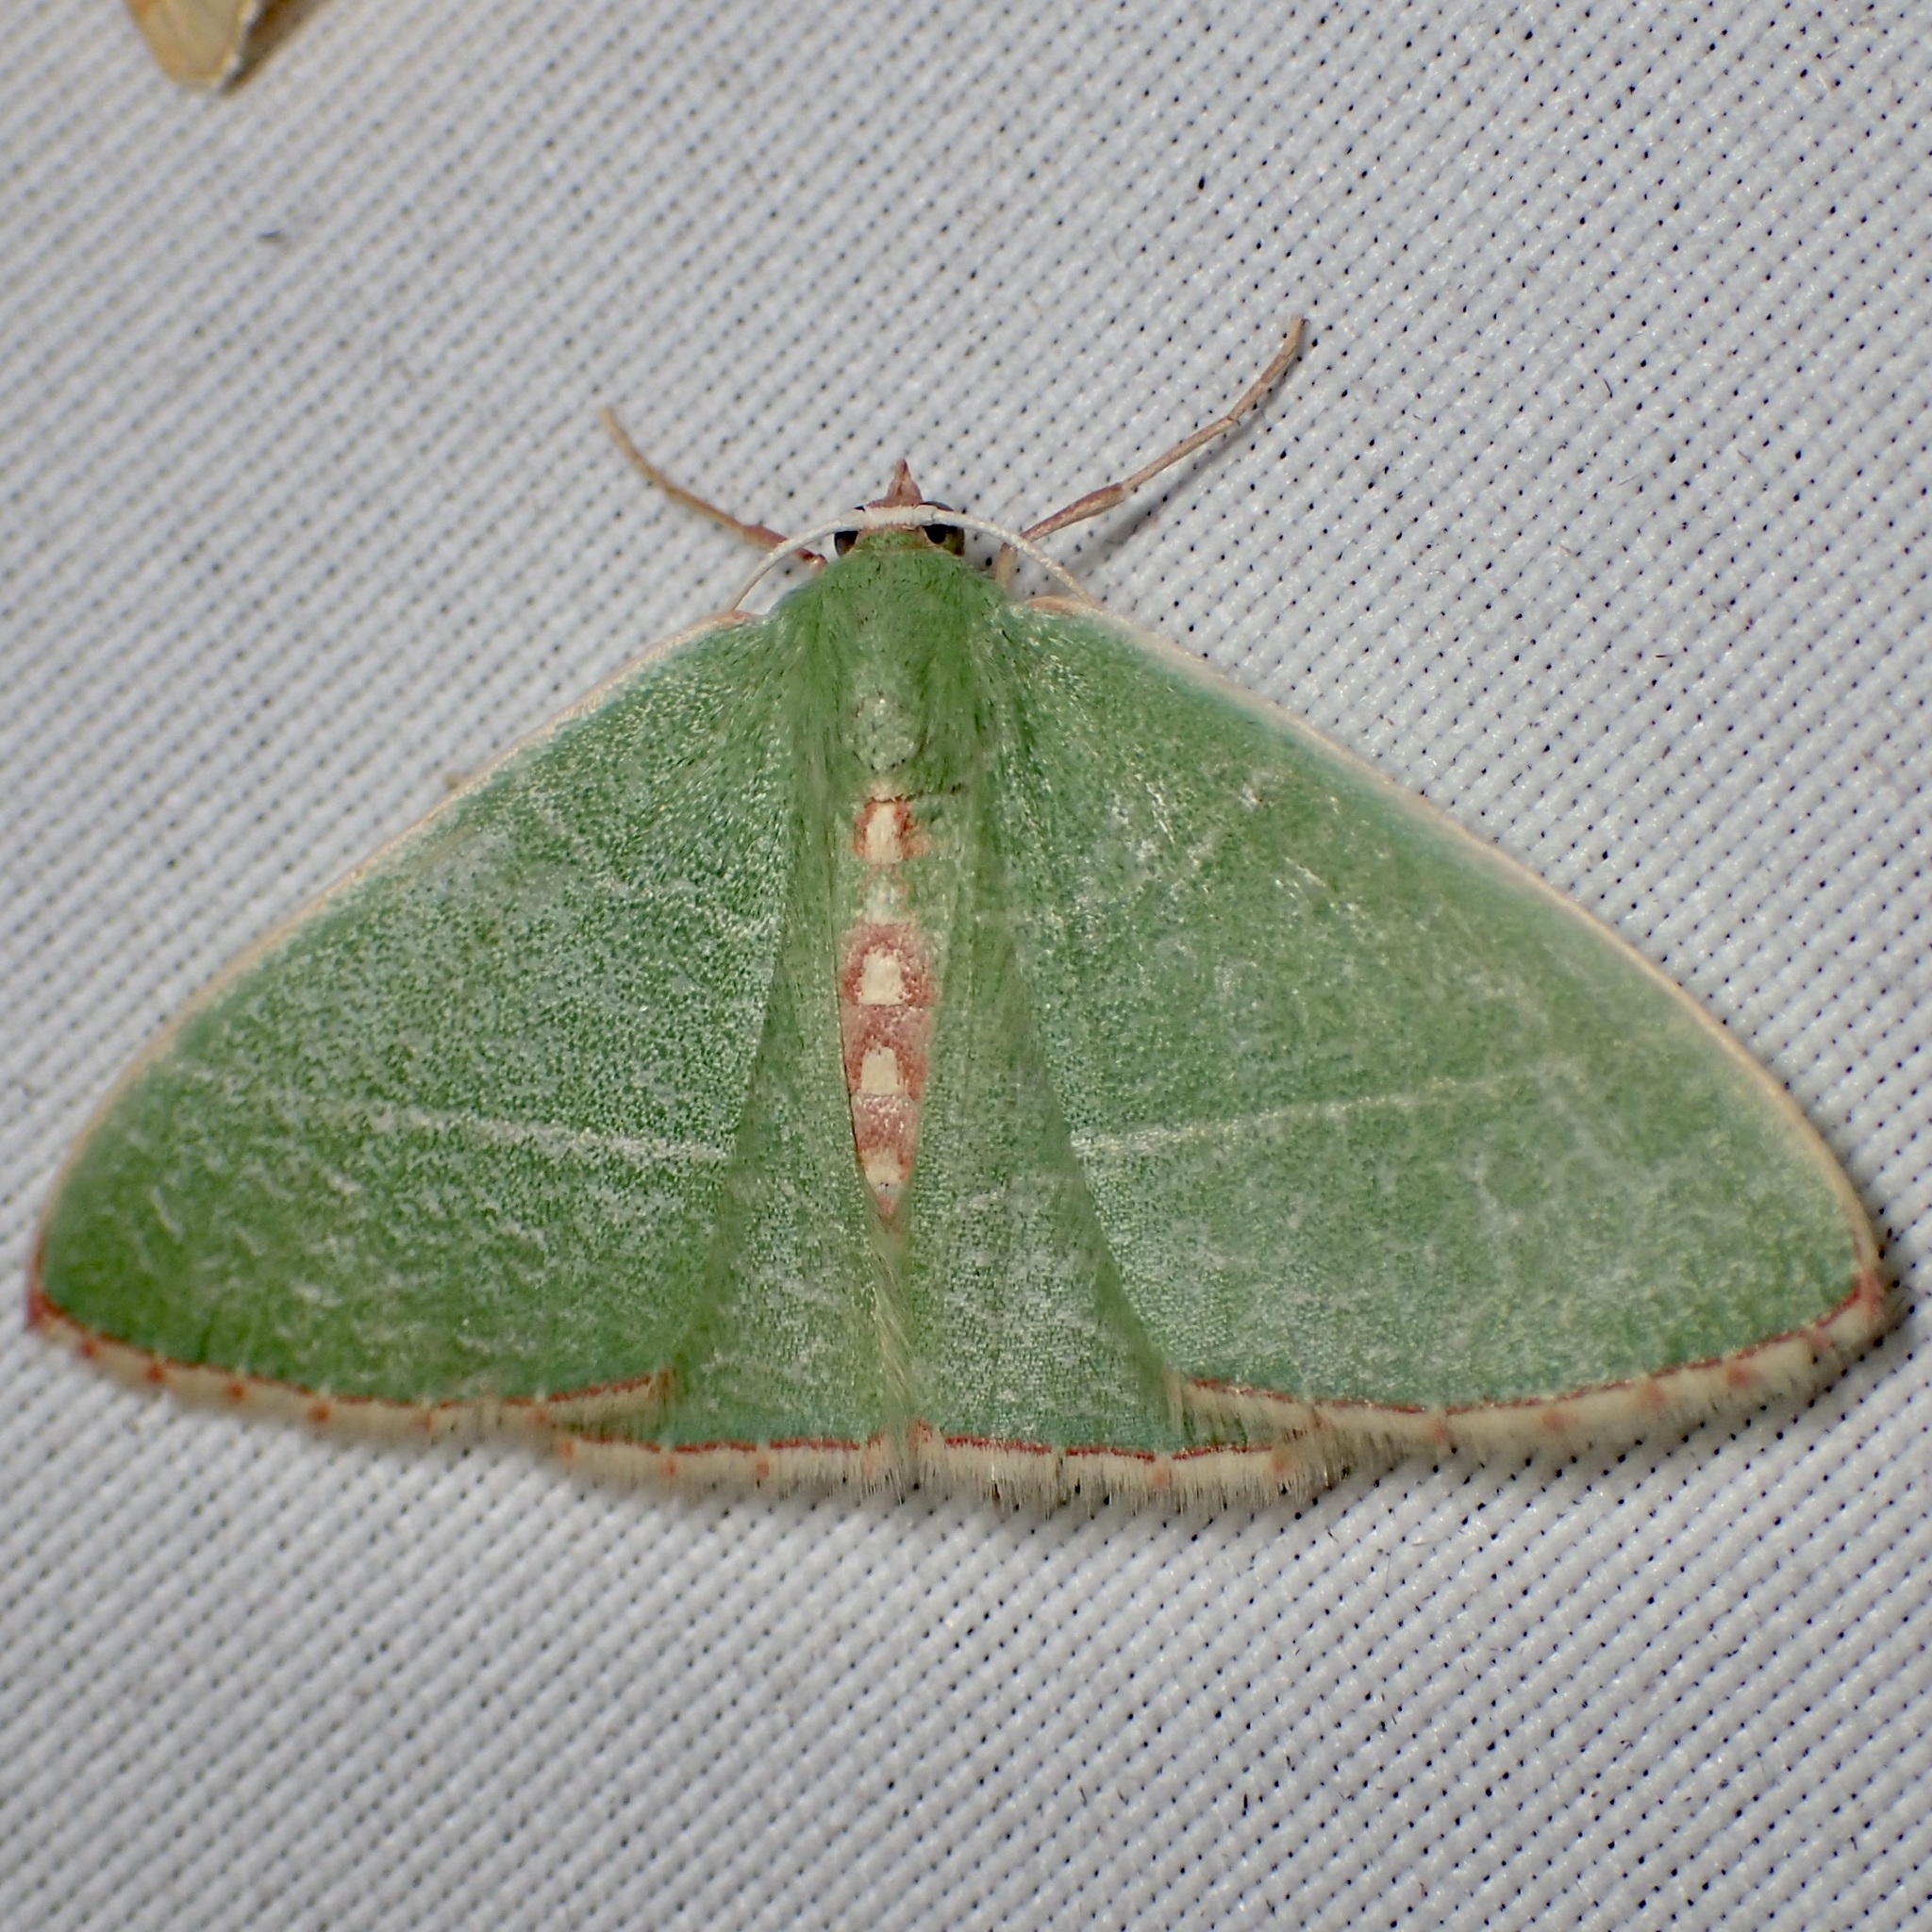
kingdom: Animalia
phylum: Arthropoda
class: Insecta
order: Lepidoptera
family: Geometridae
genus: Nemoria
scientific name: Nemoria festaria
